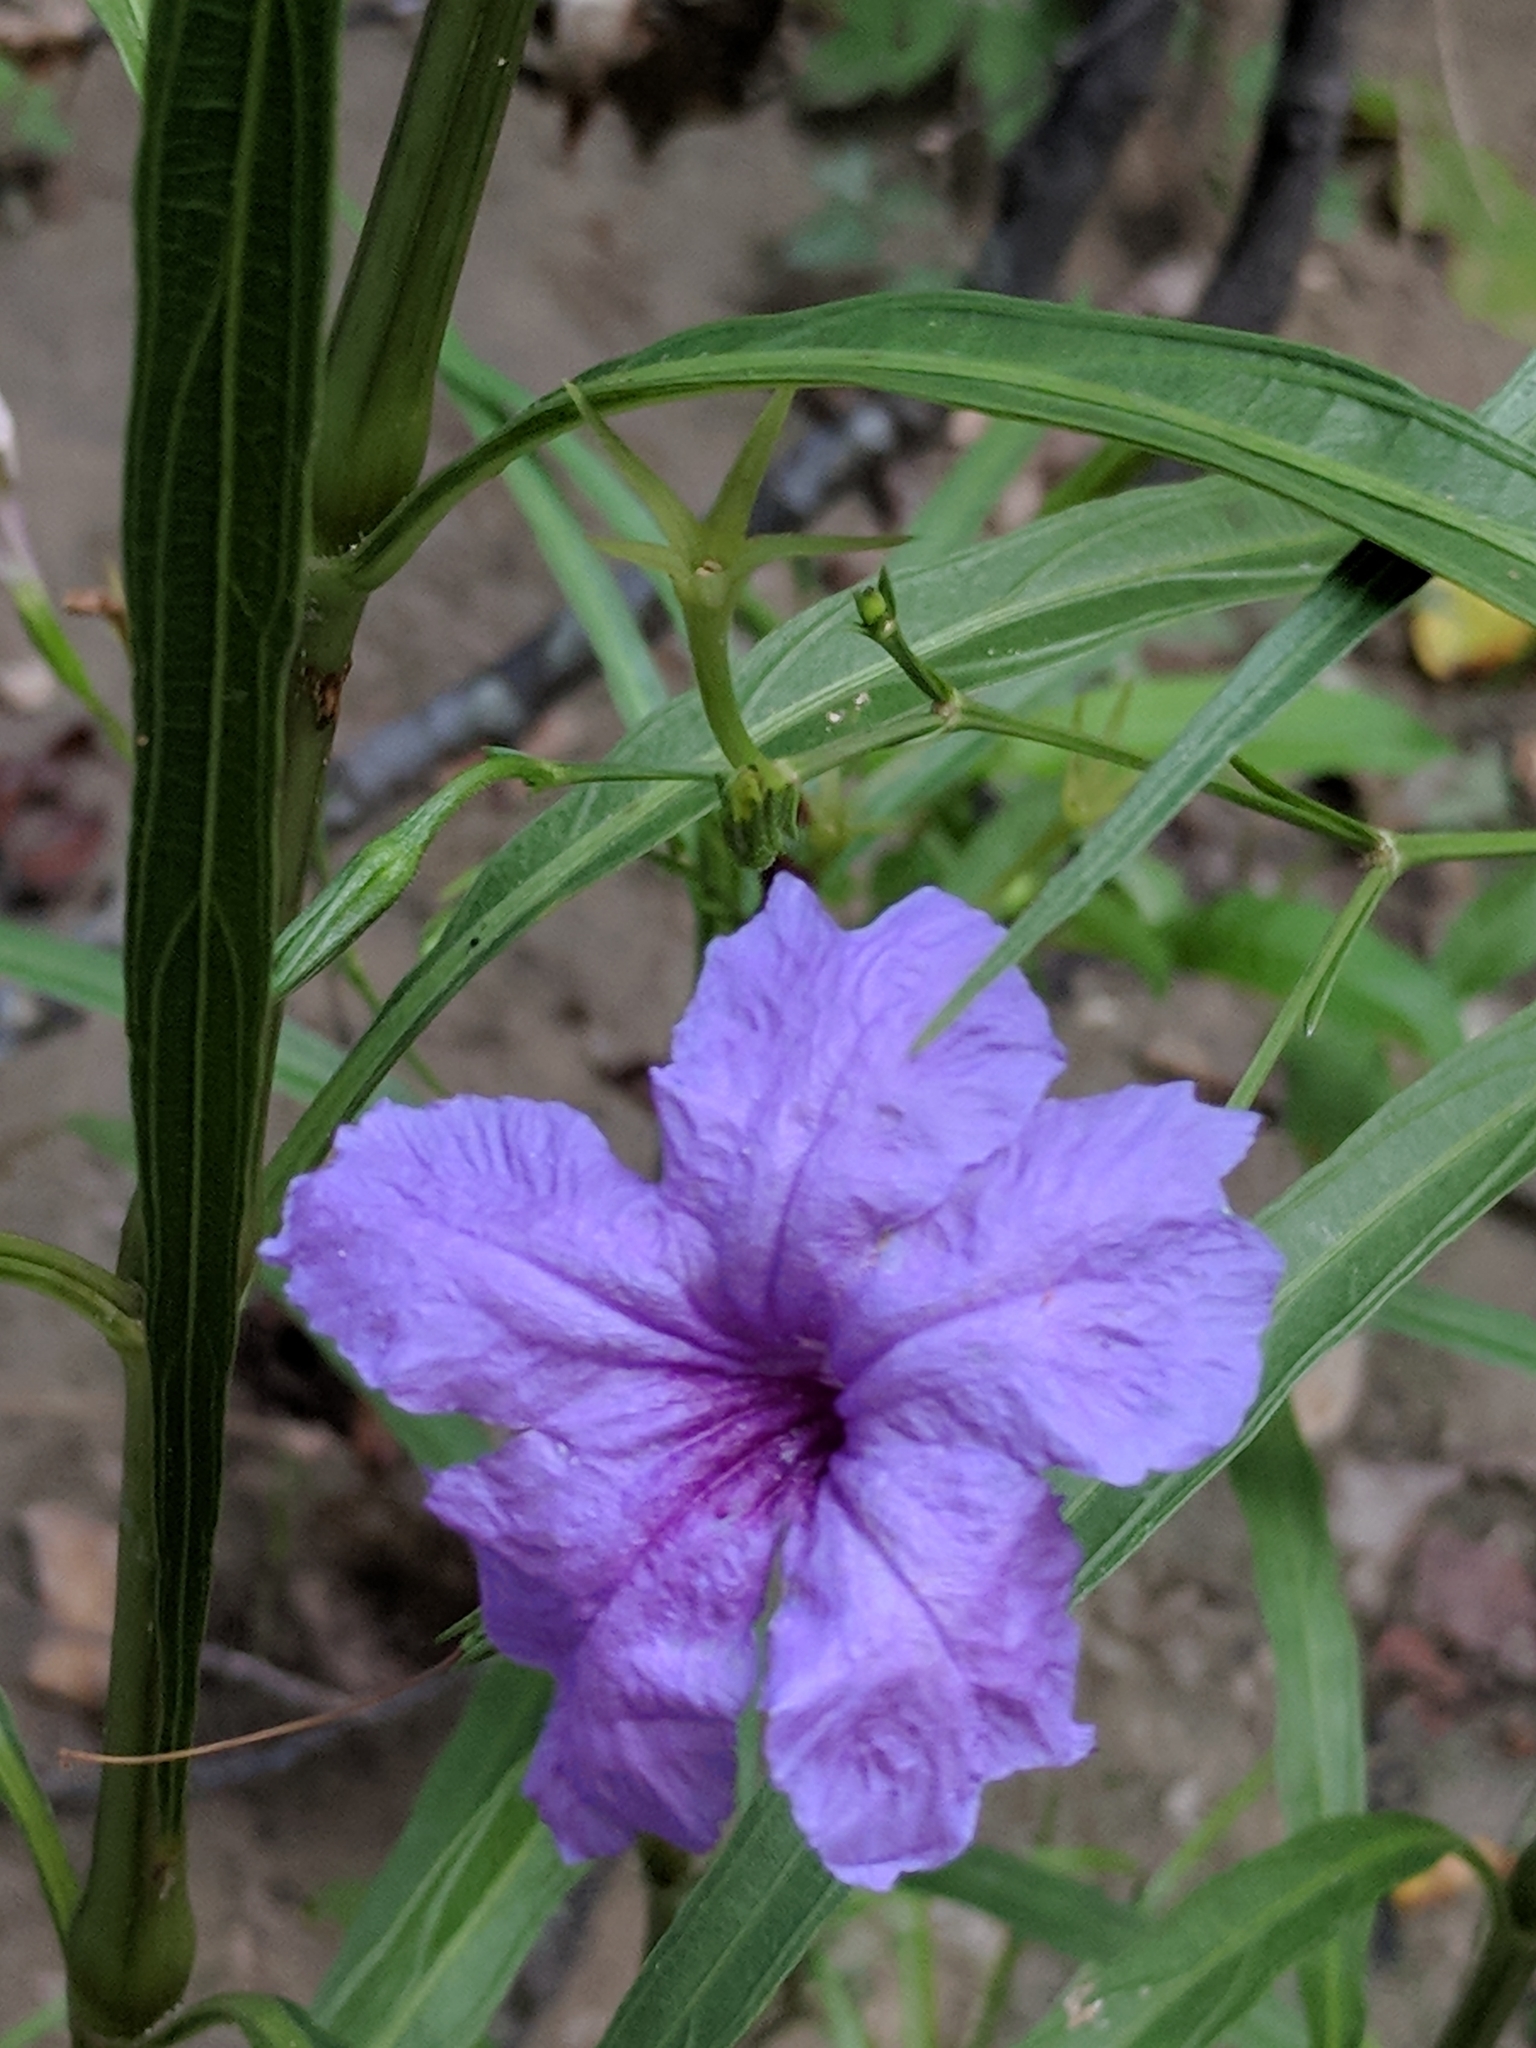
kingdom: Plantae
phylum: Tracheophyta
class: Magnoliopsida
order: Lamiales
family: Acanthaceae
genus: Ruellia
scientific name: Ruellia simplex
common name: Softseed wild petunia
